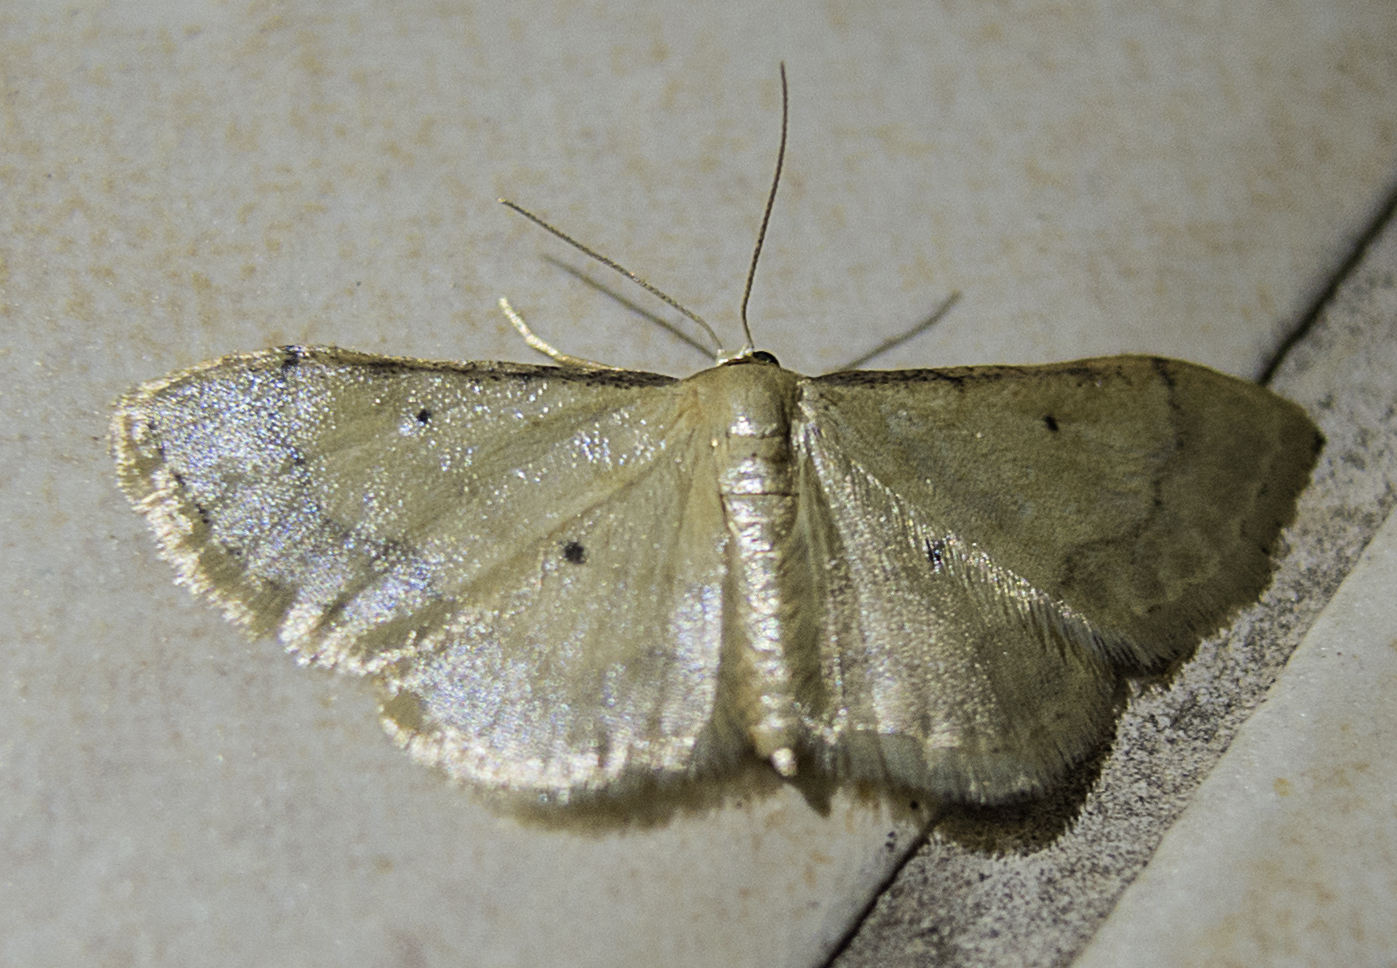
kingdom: Animalia
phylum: Arthropoda
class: Insecta
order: Lepidoptera
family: Geometridae
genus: Idaea
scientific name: Idaea politaria
